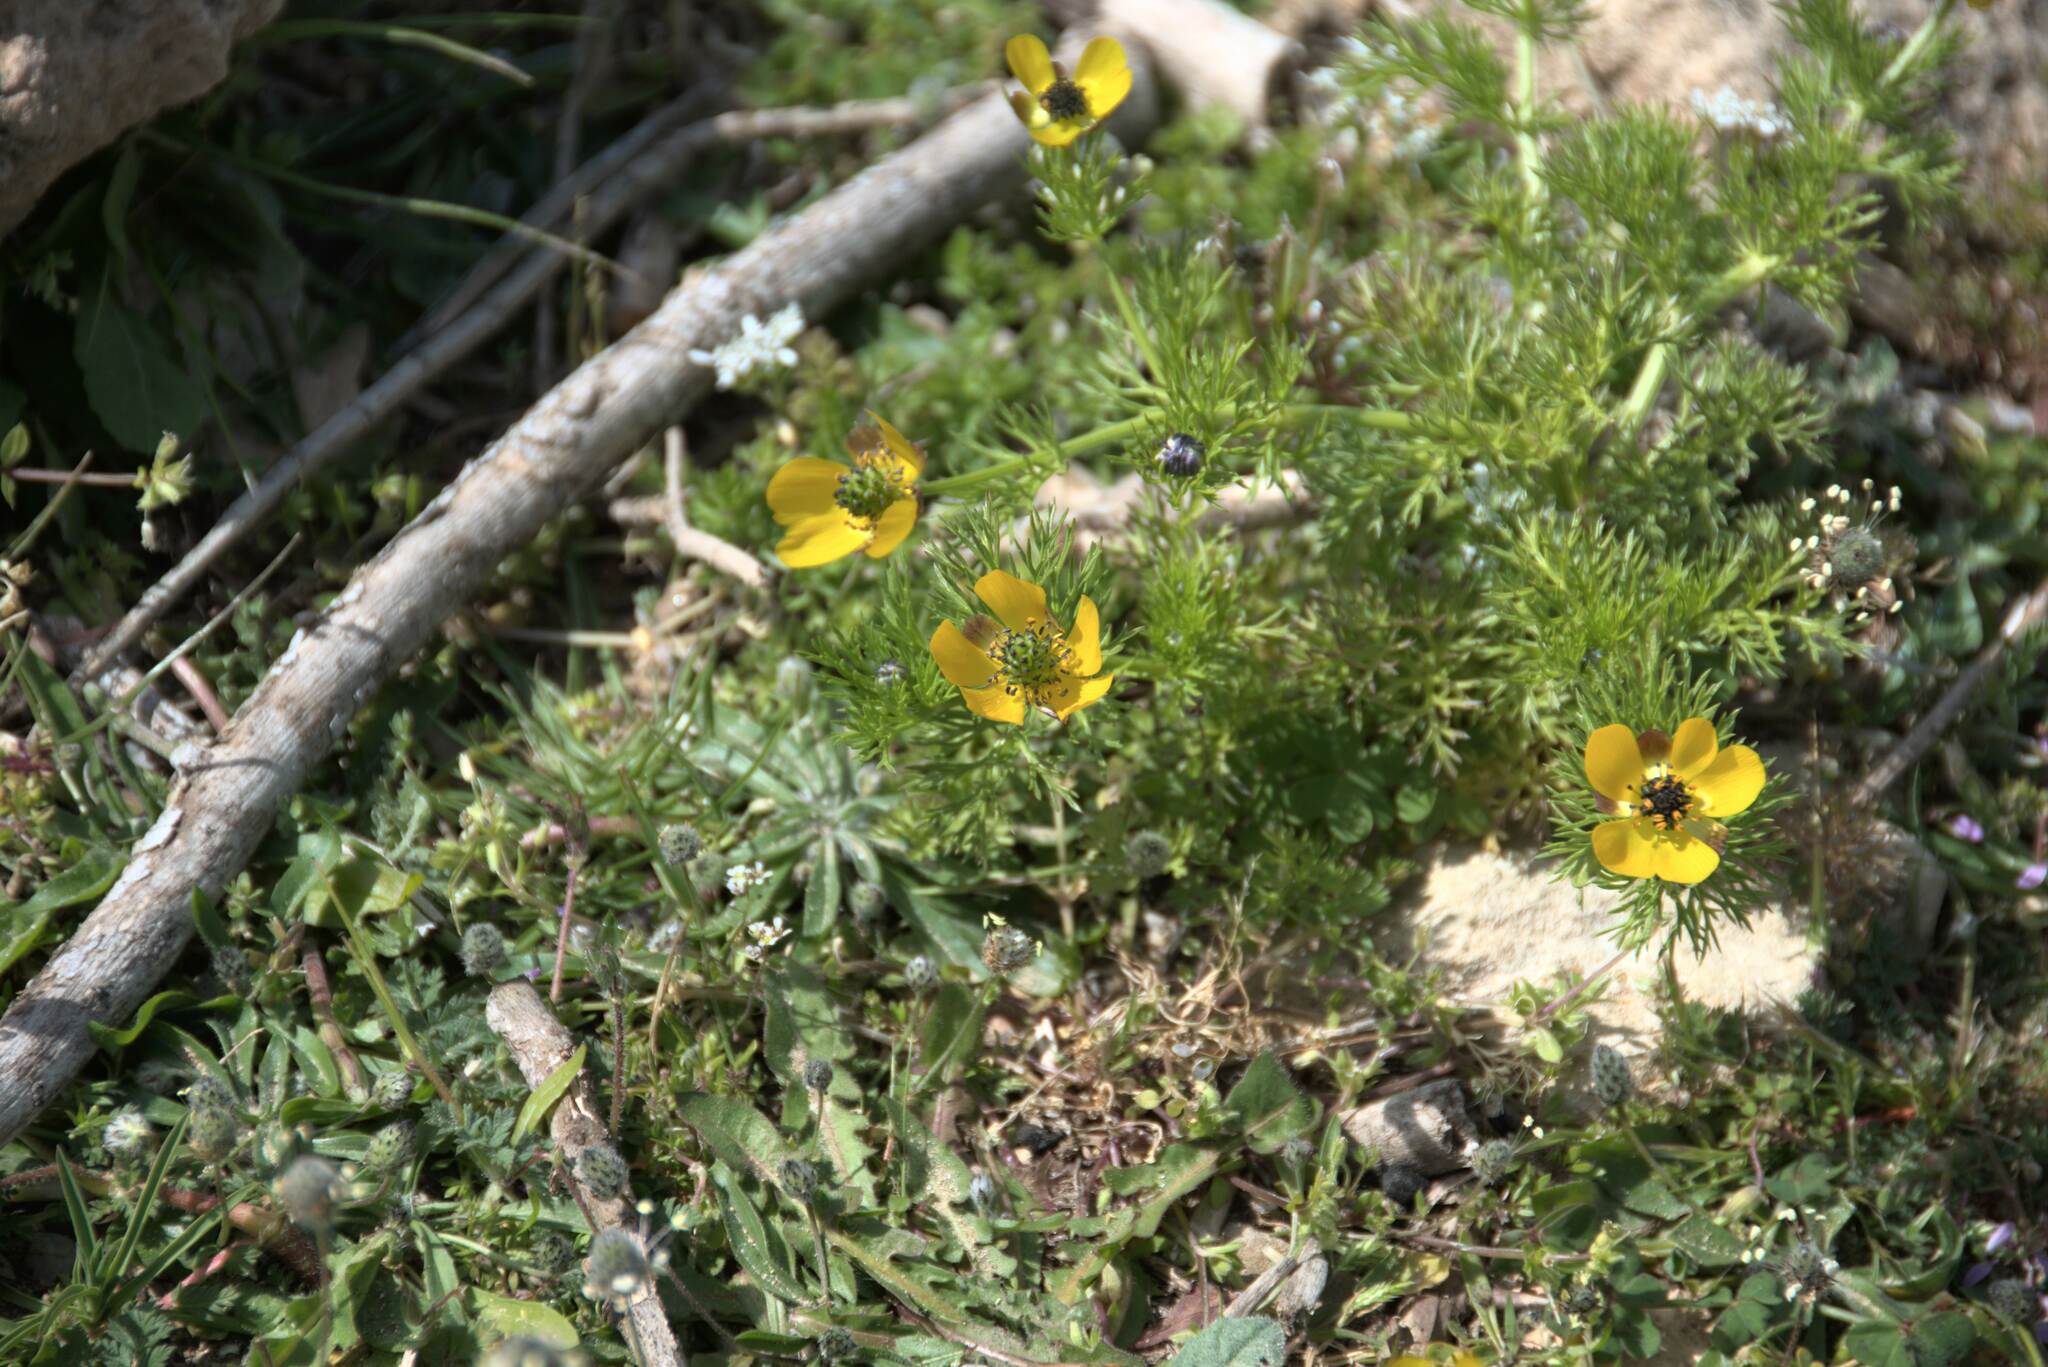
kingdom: Plantae
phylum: Tracheophyta
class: Magnoliopsida
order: Ranunculales
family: Ranunculaceae
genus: Adonis
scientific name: Adonis cretica
